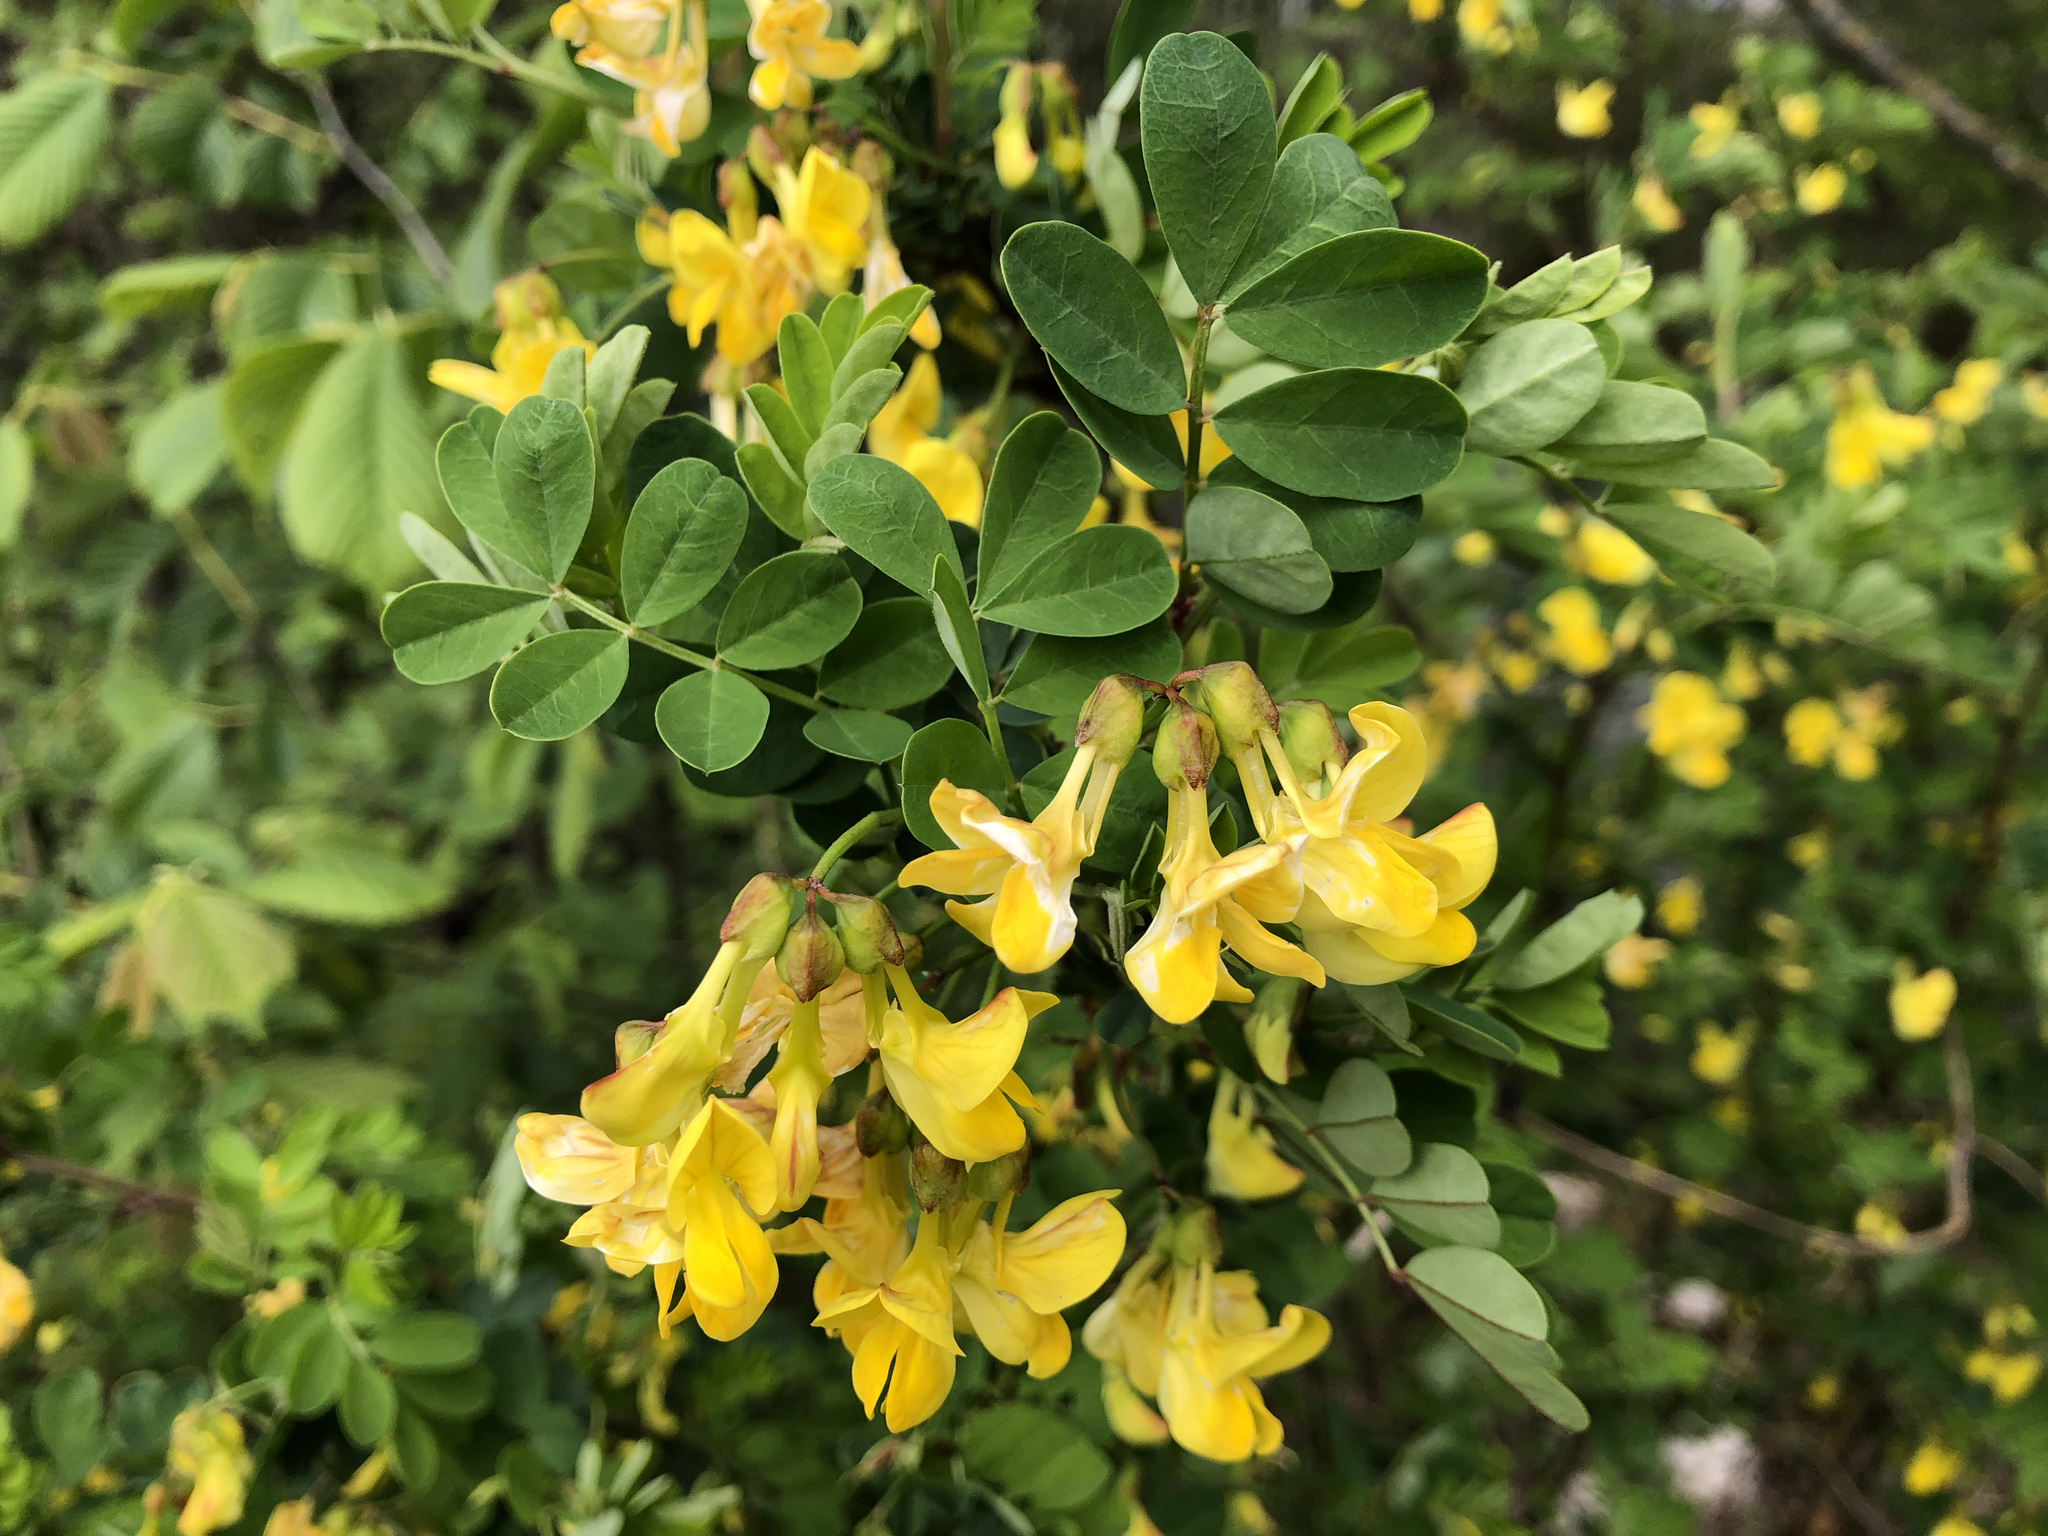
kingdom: Plantae
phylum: Tracheophyta
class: Magnoliopsida
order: Fabales
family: Fabaceae
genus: Hippocrepis
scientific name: Hippocrepis emerus
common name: Scorpion senna
